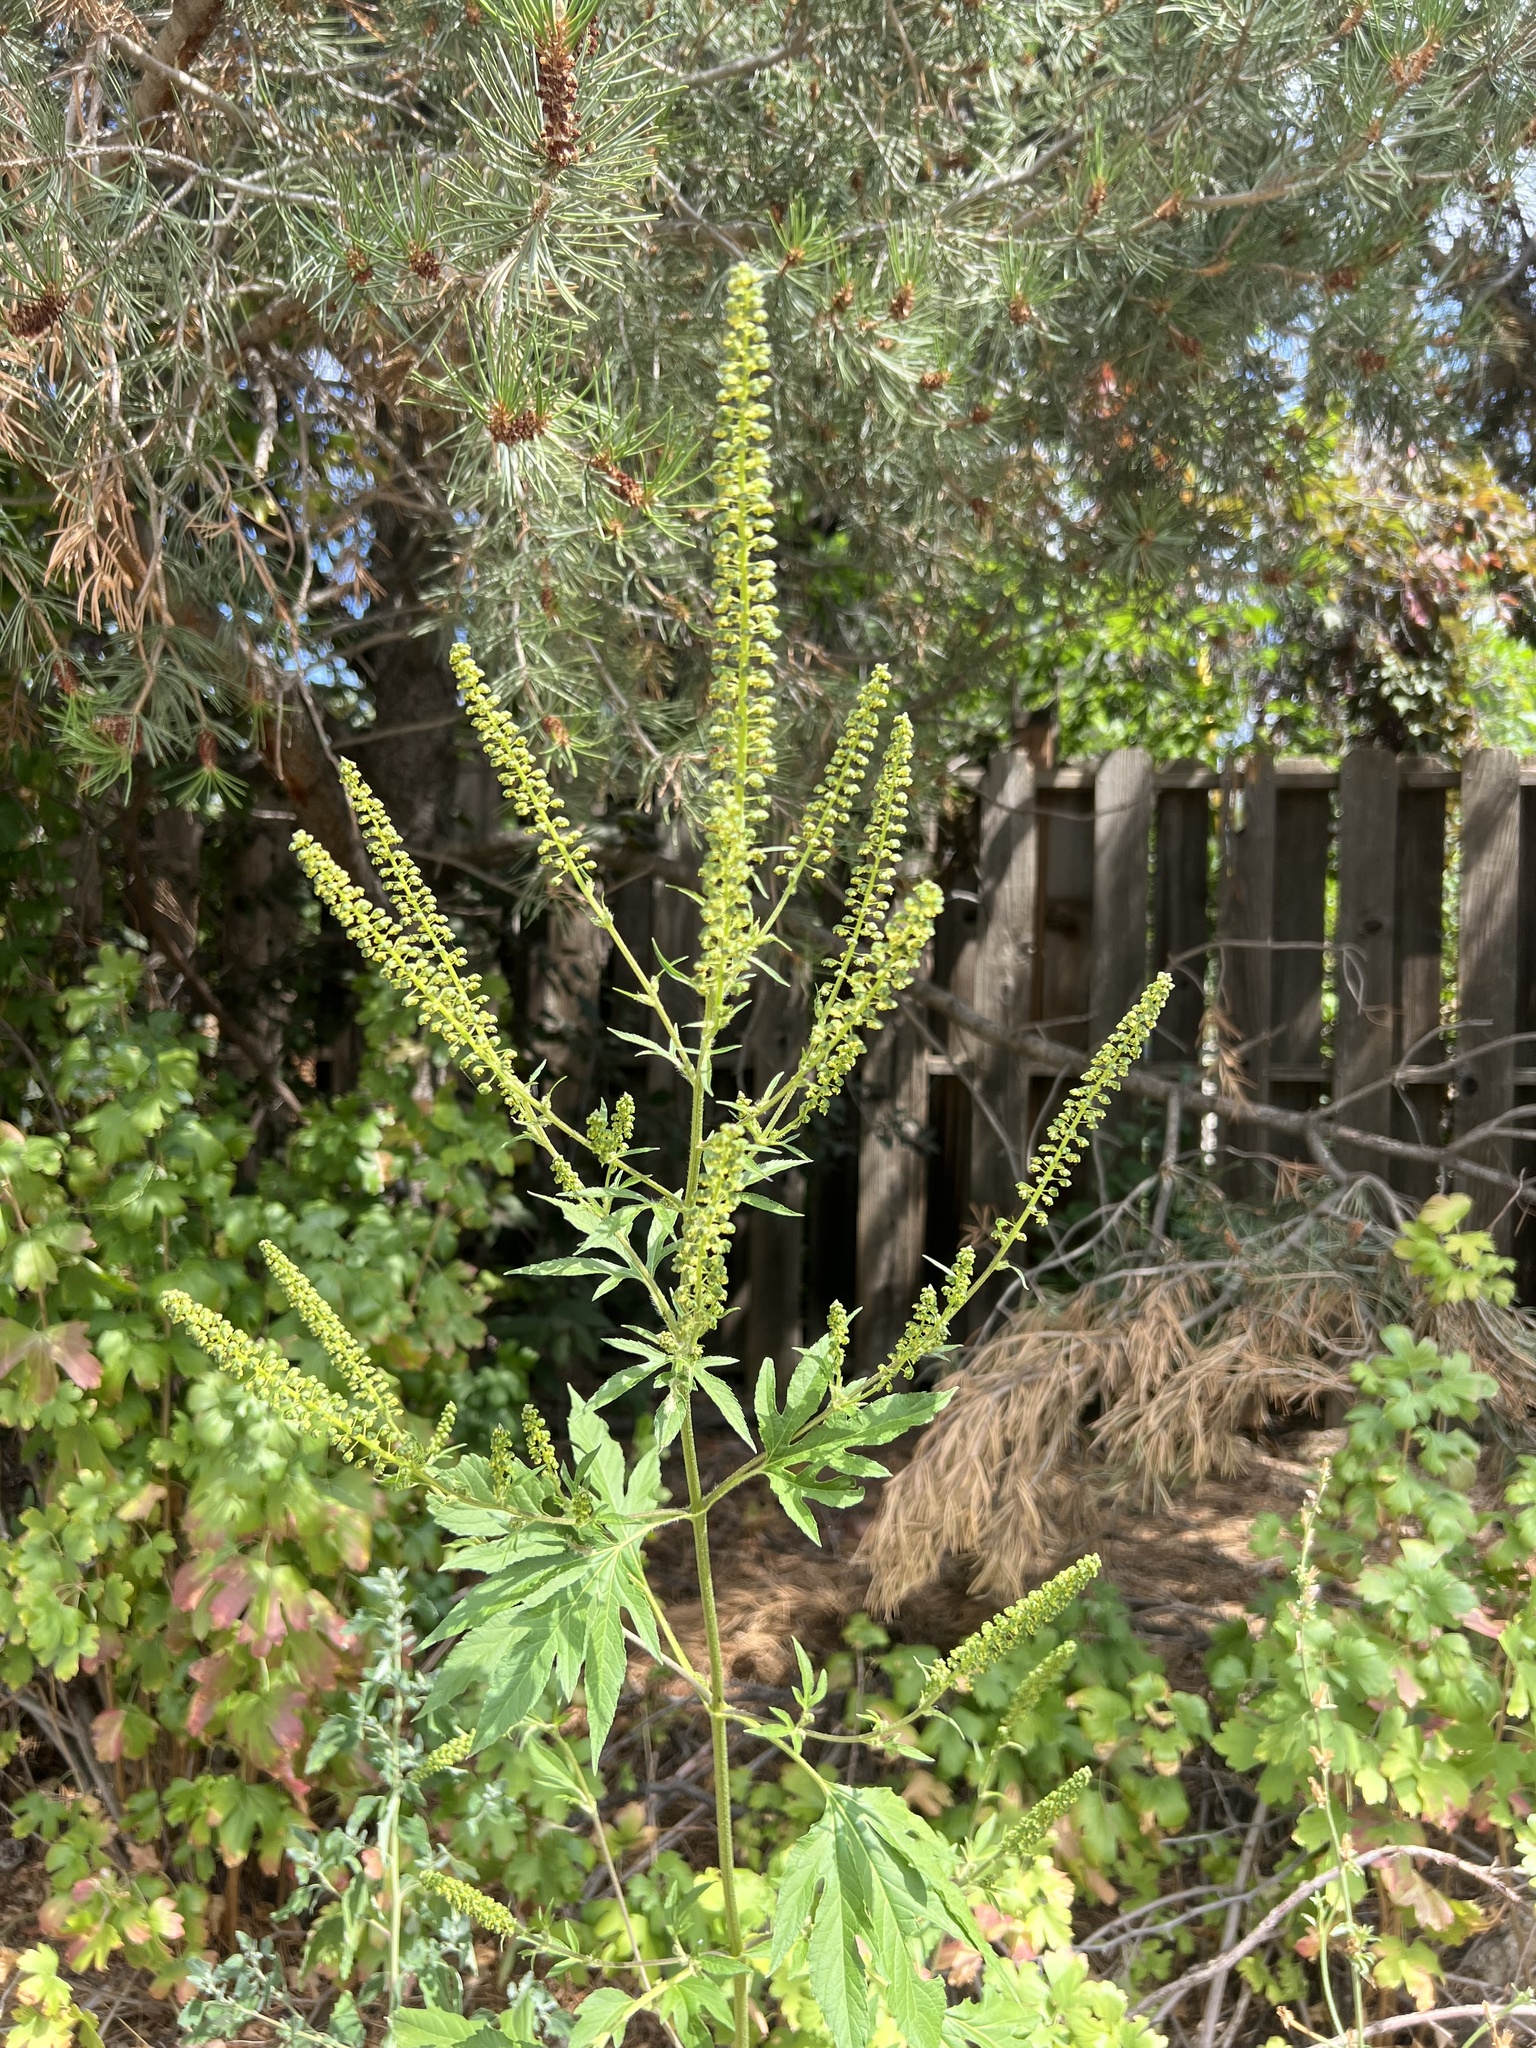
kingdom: Plantae
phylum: Tracheophyta
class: Magnoliopsida
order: Asterales
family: Asteraceae
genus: Ambrosia
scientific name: Ambrosia trifida
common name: Giant ragweed
